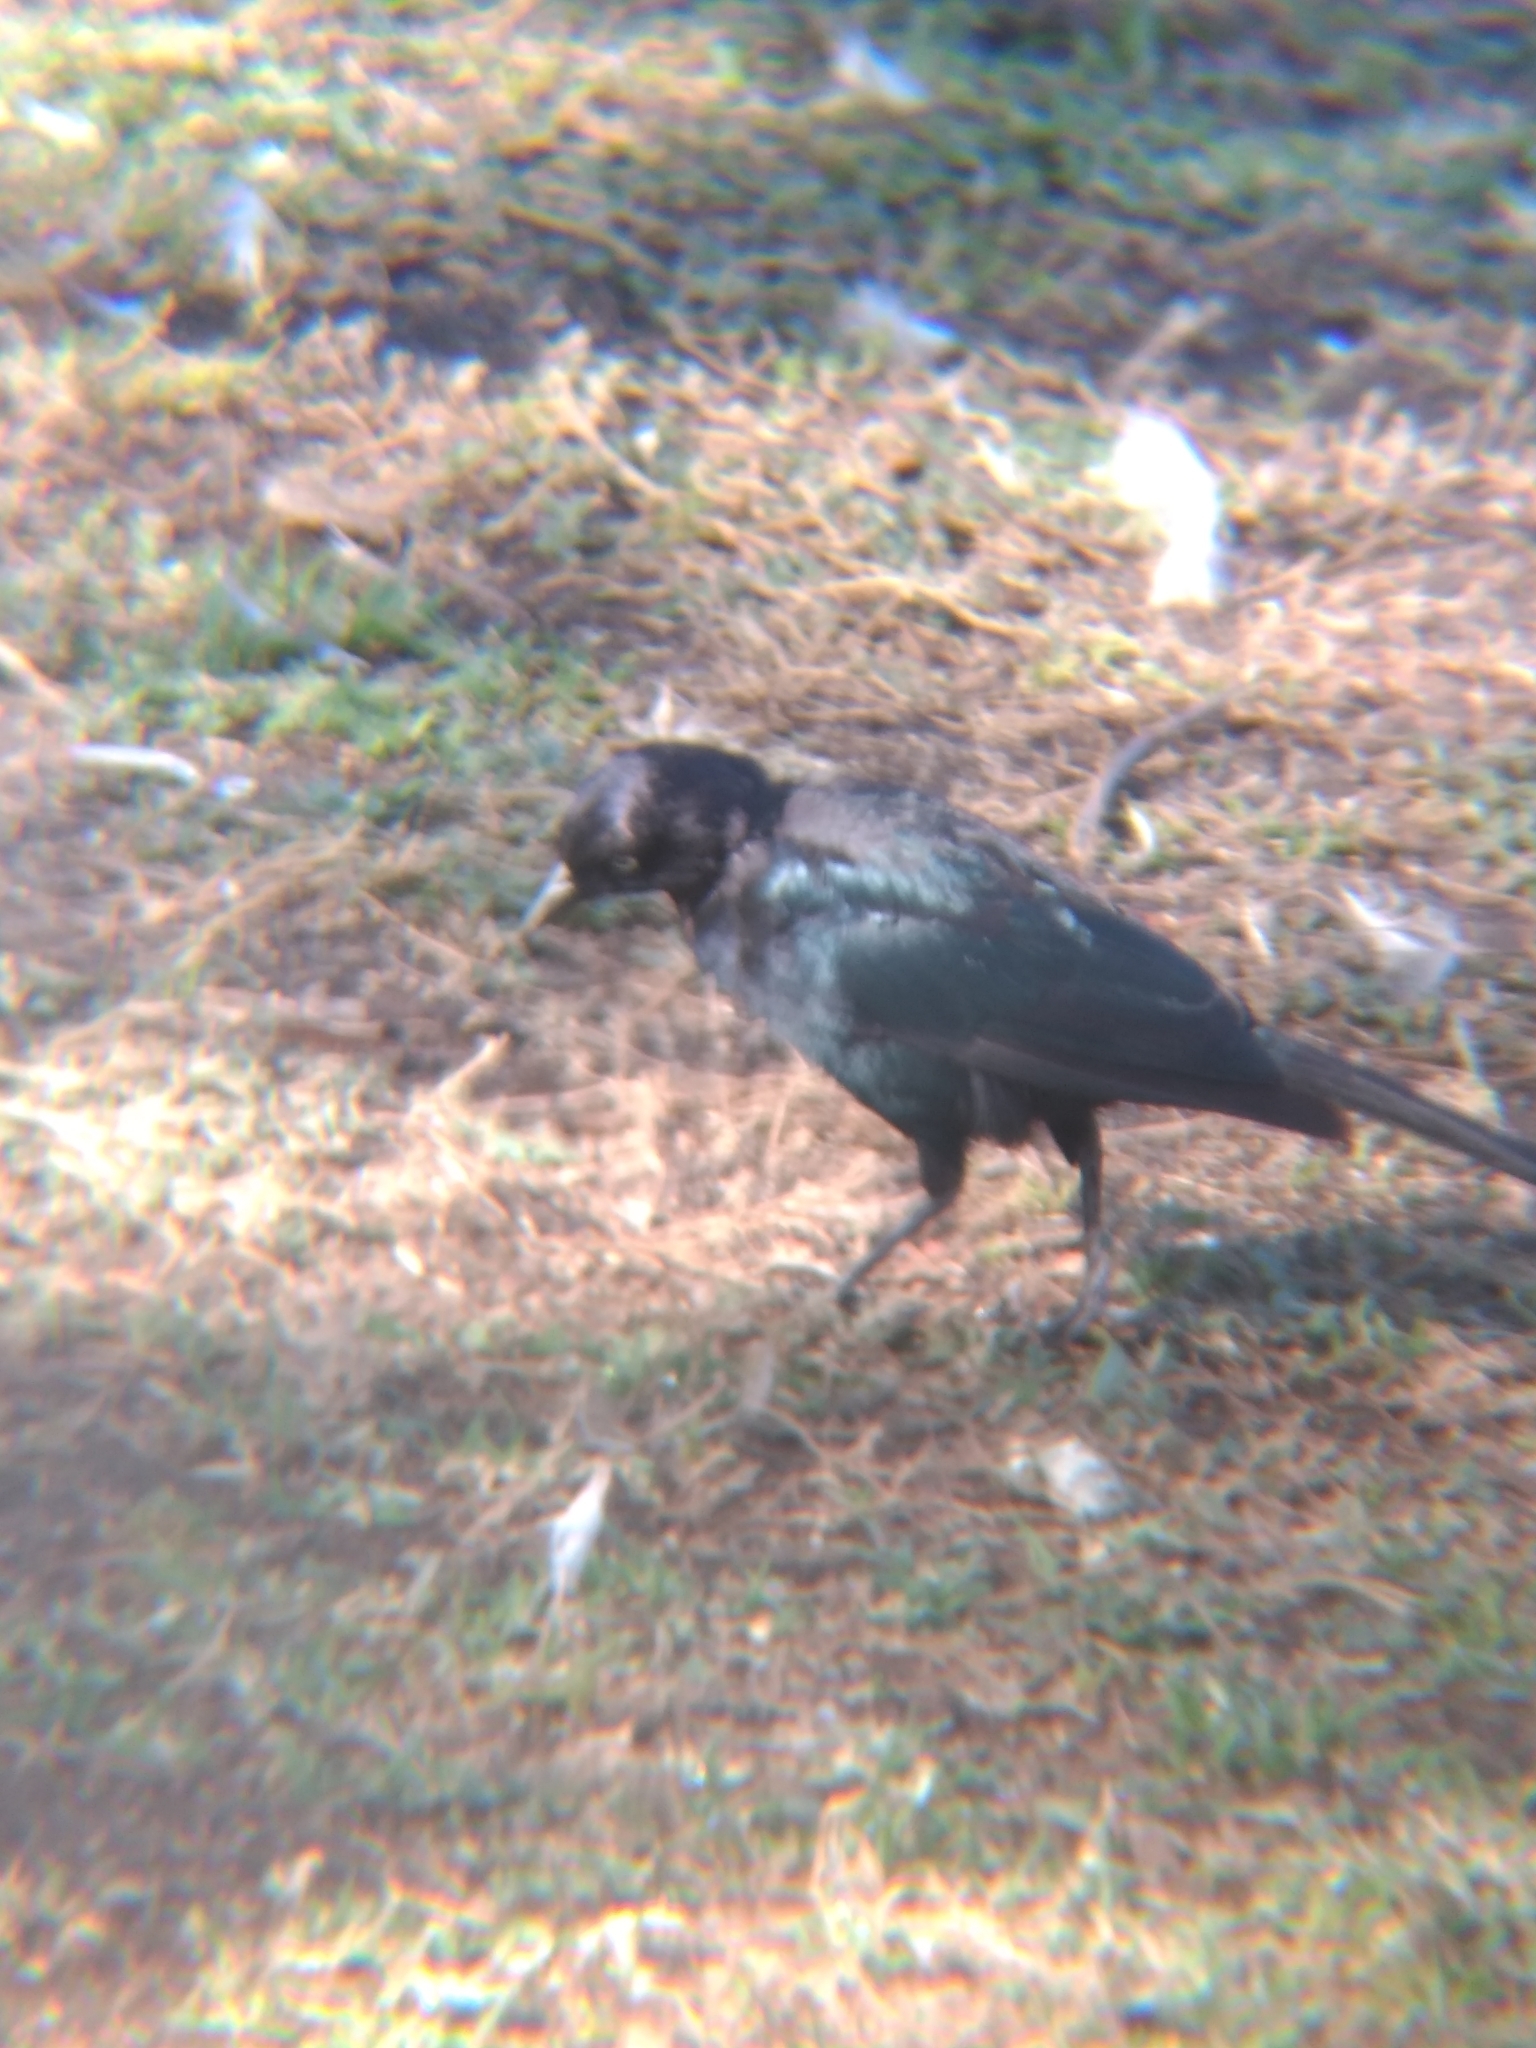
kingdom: Animalia
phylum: Chordata
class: Aves
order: Passeriformes
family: Icteridae
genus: Euphagus
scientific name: Euphagus cyanocephalus
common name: Brewer's blackbird
